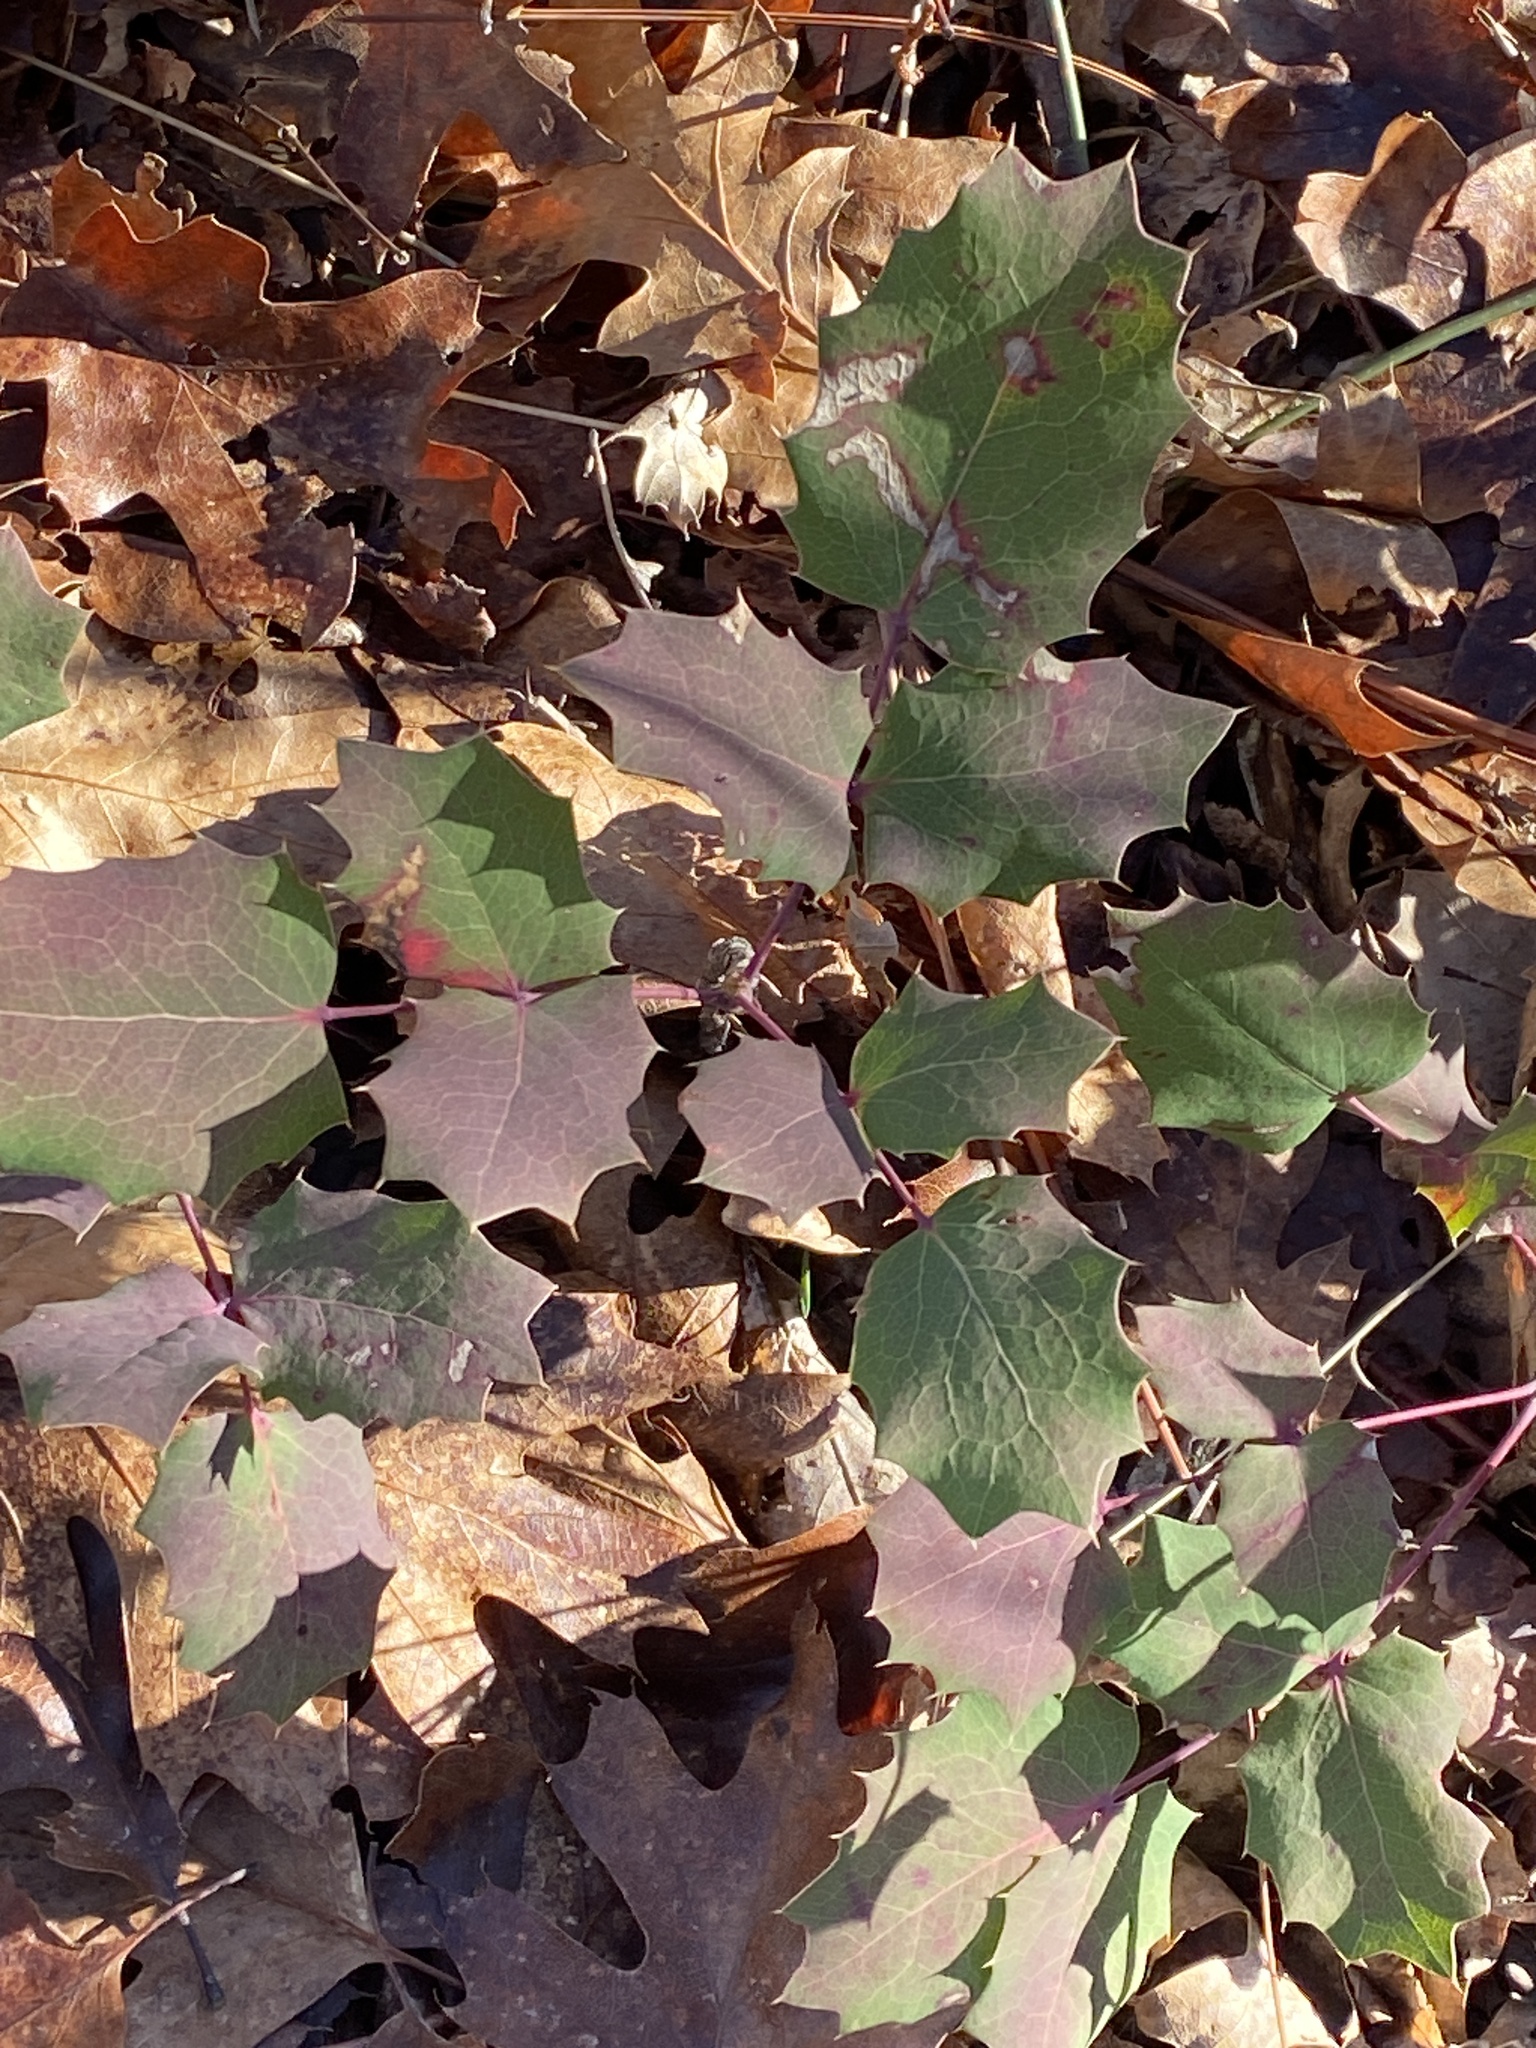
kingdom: Plantae
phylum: Tracheophyta
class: Magnoliopsida
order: Ranunculales
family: Berberidaceae
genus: Mahonia
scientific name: Mahonia dictyota
